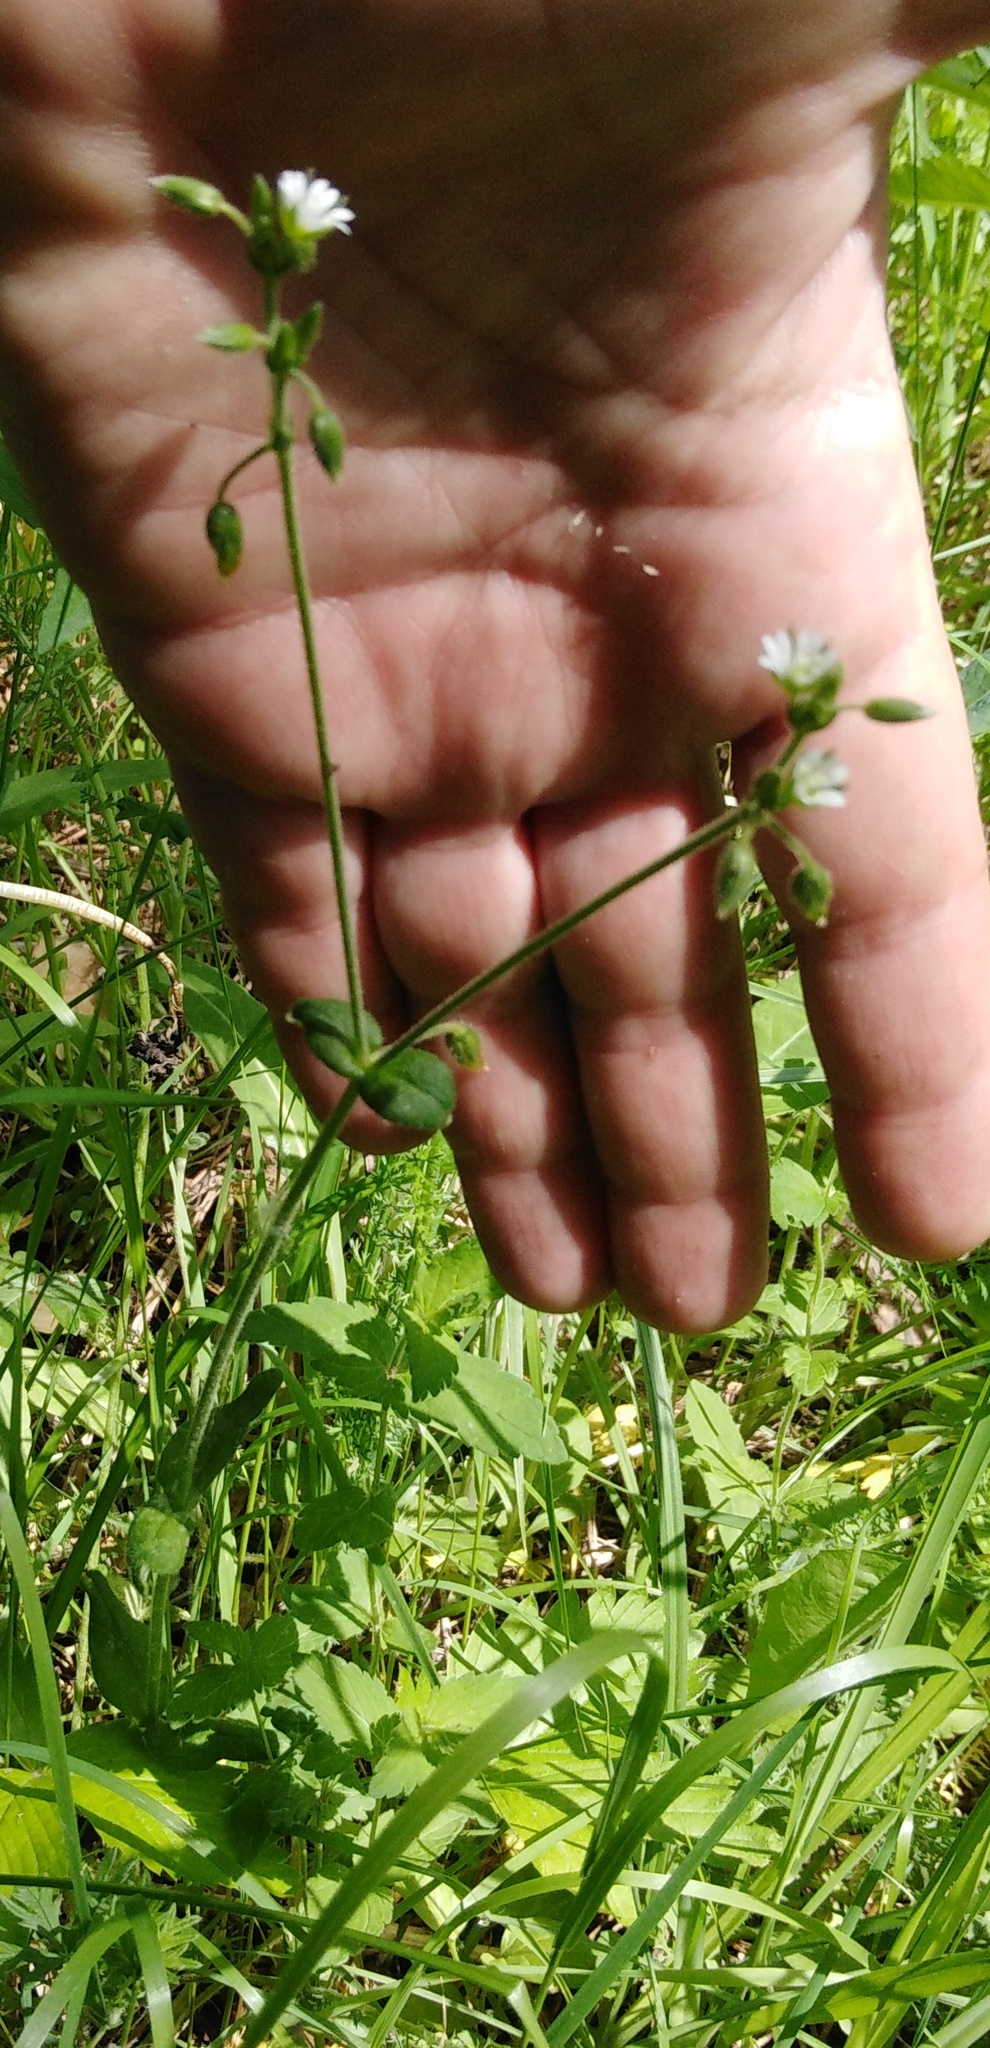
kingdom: Plantae
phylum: Tracheophyta
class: Magnoliopsida
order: Caryophyllales
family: Caryophyllaceae
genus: Cerastium
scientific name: Cerastium holosteoides
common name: Big chickweed
